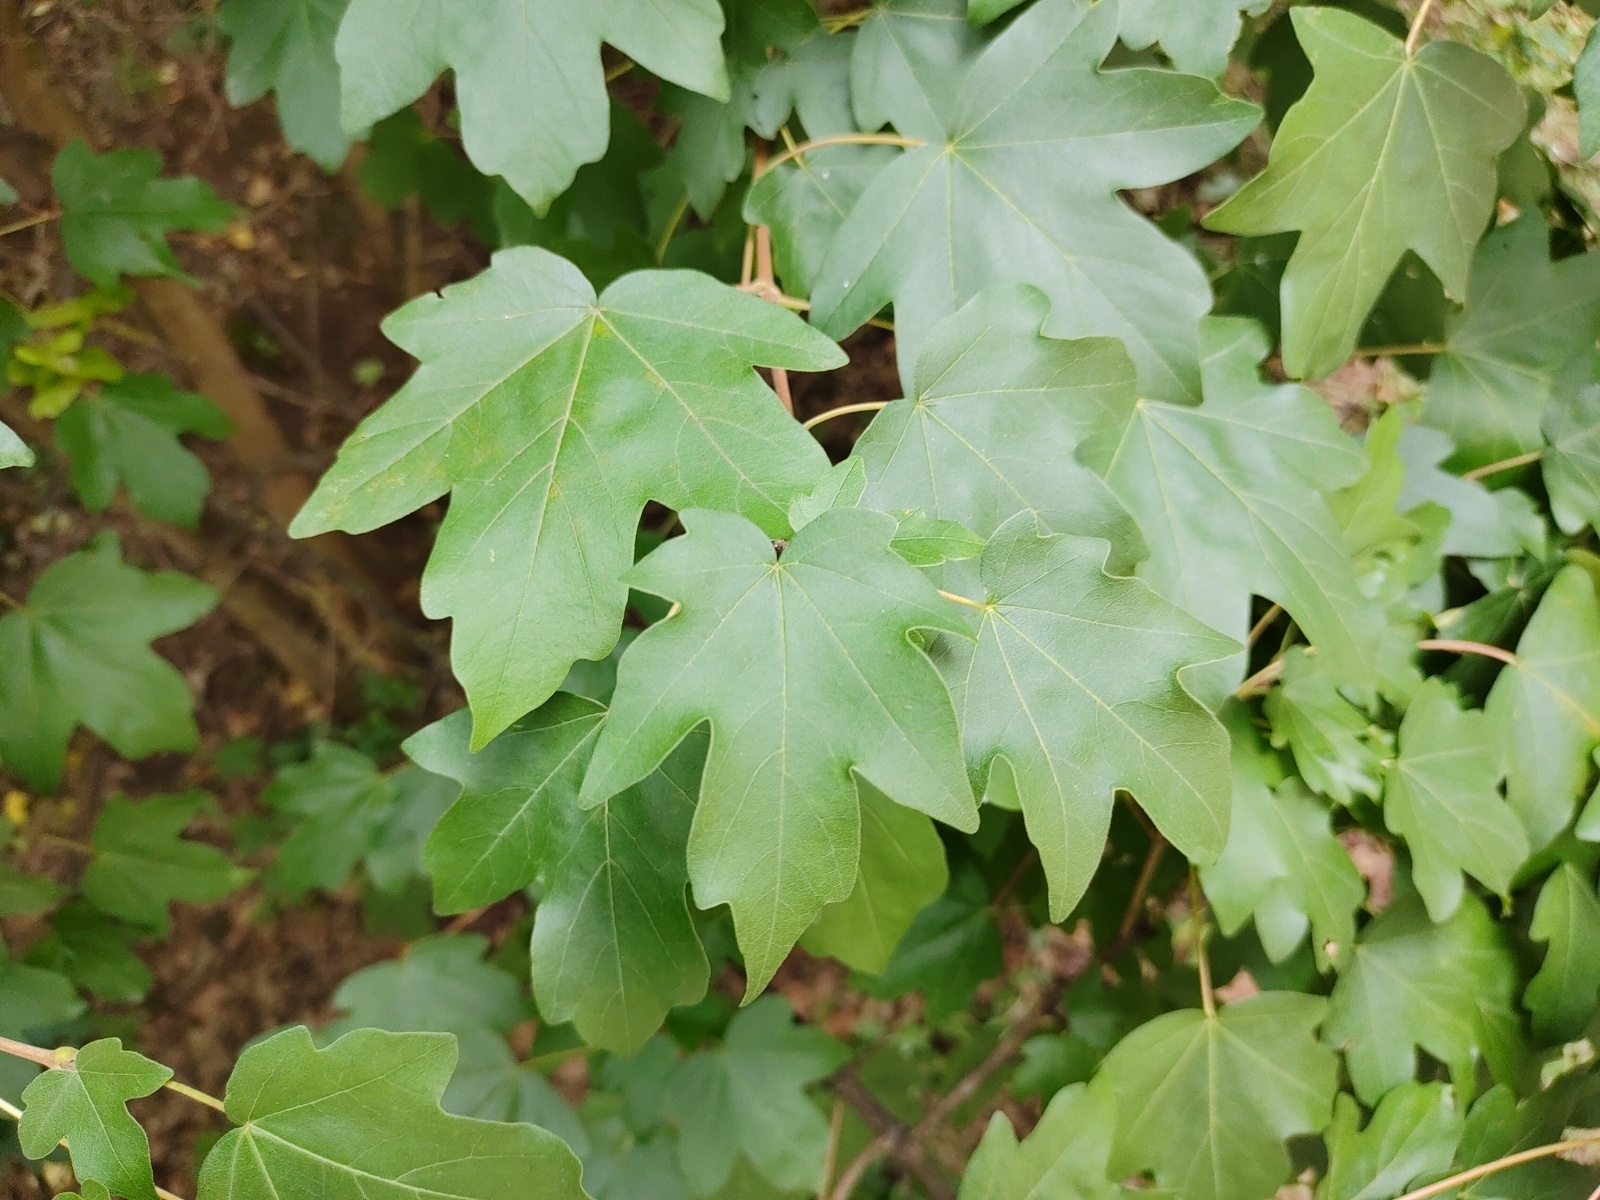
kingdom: Plantae
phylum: Tracheophyta
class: Magnoliopsida
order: Sapindales
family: Sapindaceae
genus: Acer
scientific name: Acer campestre
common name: Field maple
